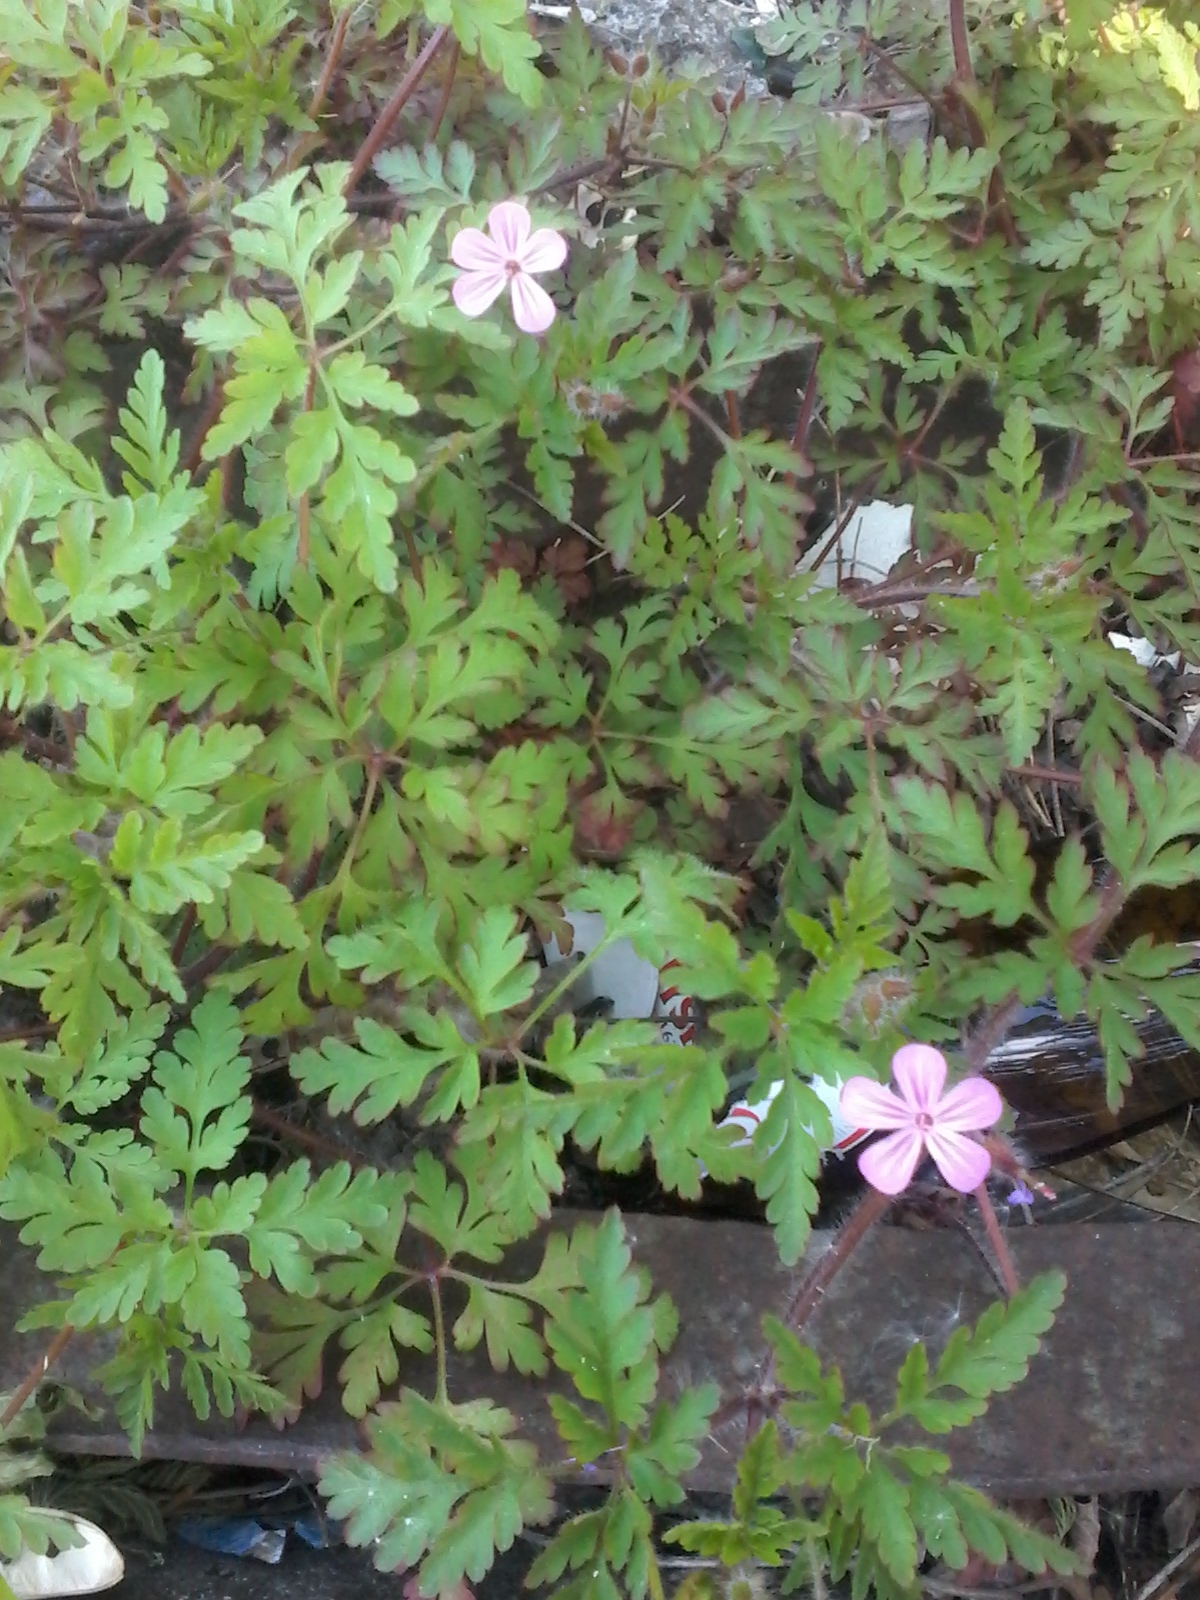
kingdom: Plantae
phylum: Tracheophyta
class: Magnoliopsida
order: Geraniales
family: Geraniaceae
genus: Geranium
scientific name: Geranium robertianum
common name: Herb-robert
